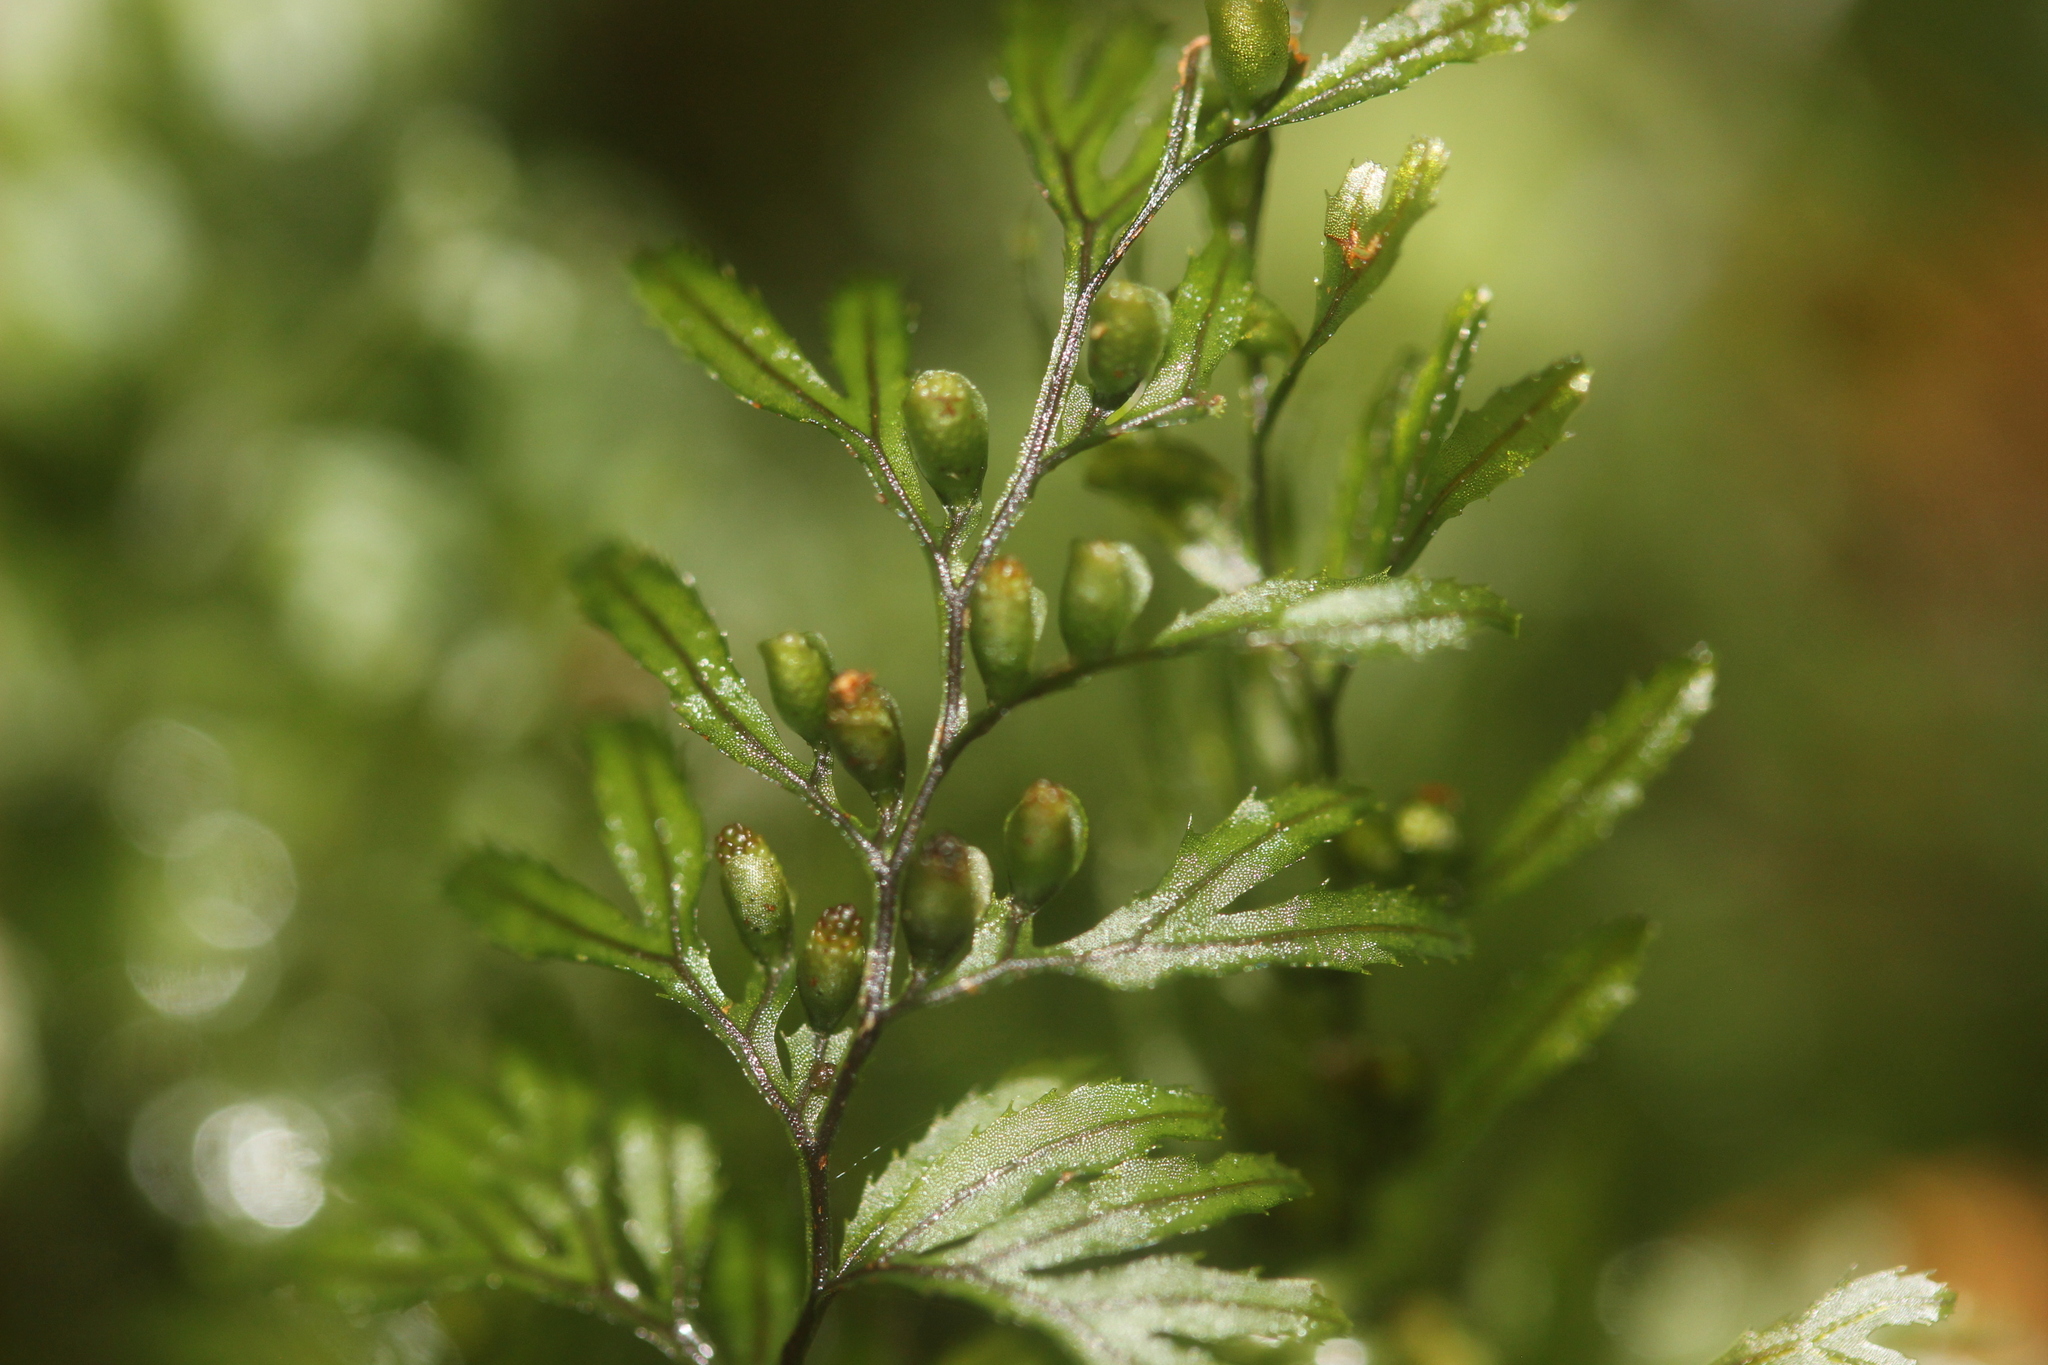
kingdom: Plantae
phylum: Tracheophyta
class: Polypodiopsida
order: Hymenophyllales
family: Hymenophyllaceae
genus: Hymenophyllum
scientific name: Hymenophyllum peltatum
